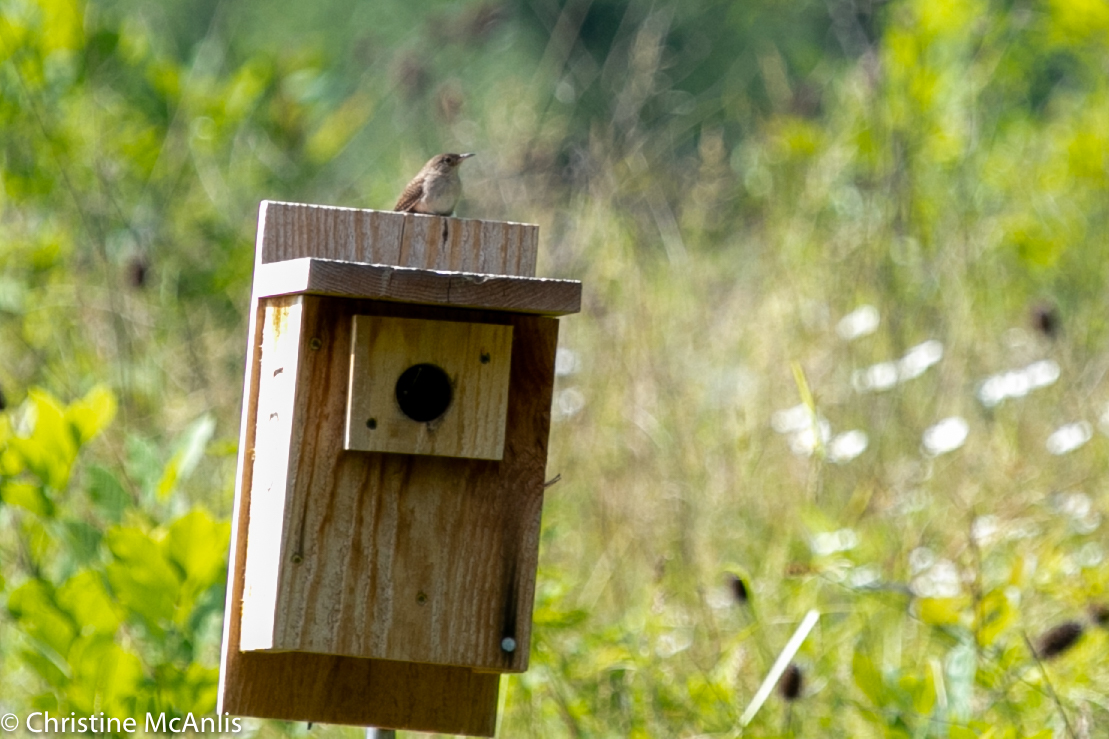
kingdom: Animalia
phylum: Chordata
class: Aves
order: Passeriformes
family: Troglodytidae
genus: Troglodytes
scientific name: Troglodytes aedon
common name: House wren
